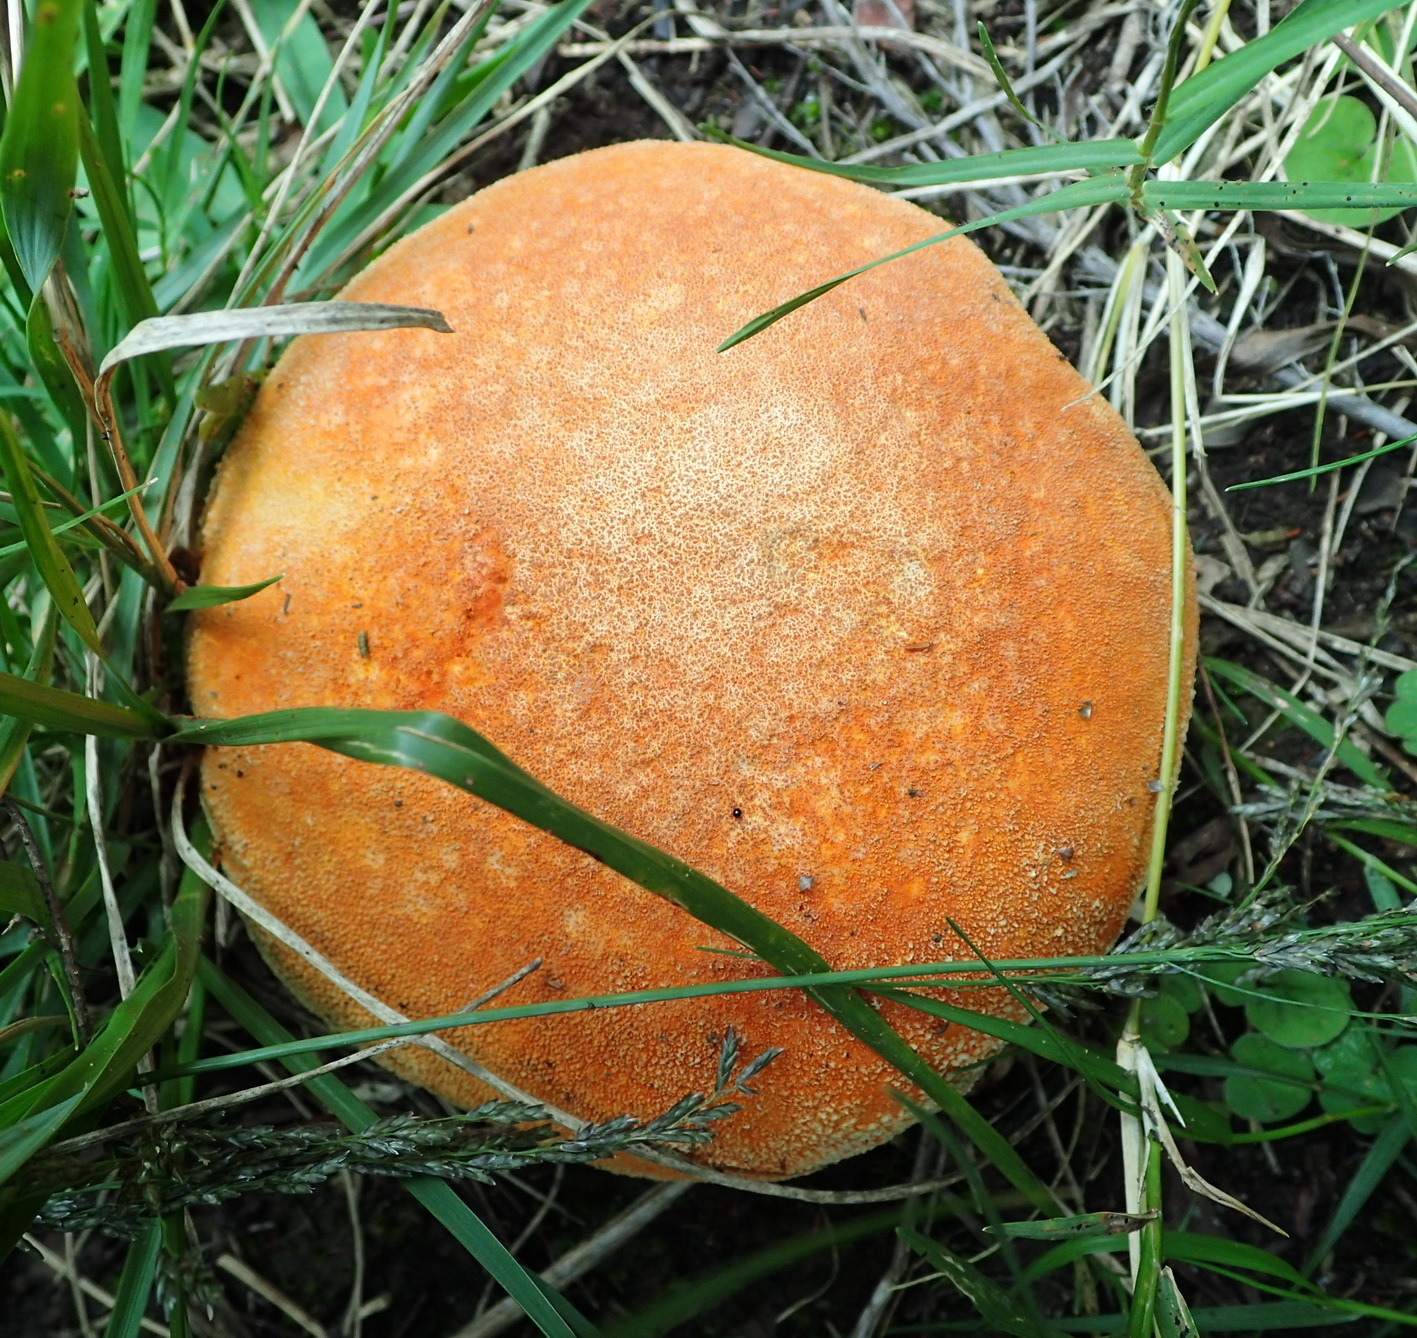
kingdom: Fungi
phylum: Basidiomycota
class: Agaricomycetes
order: Agaricales
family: Lycoperdaceae
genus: Bovista
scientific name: Bovista colorata
